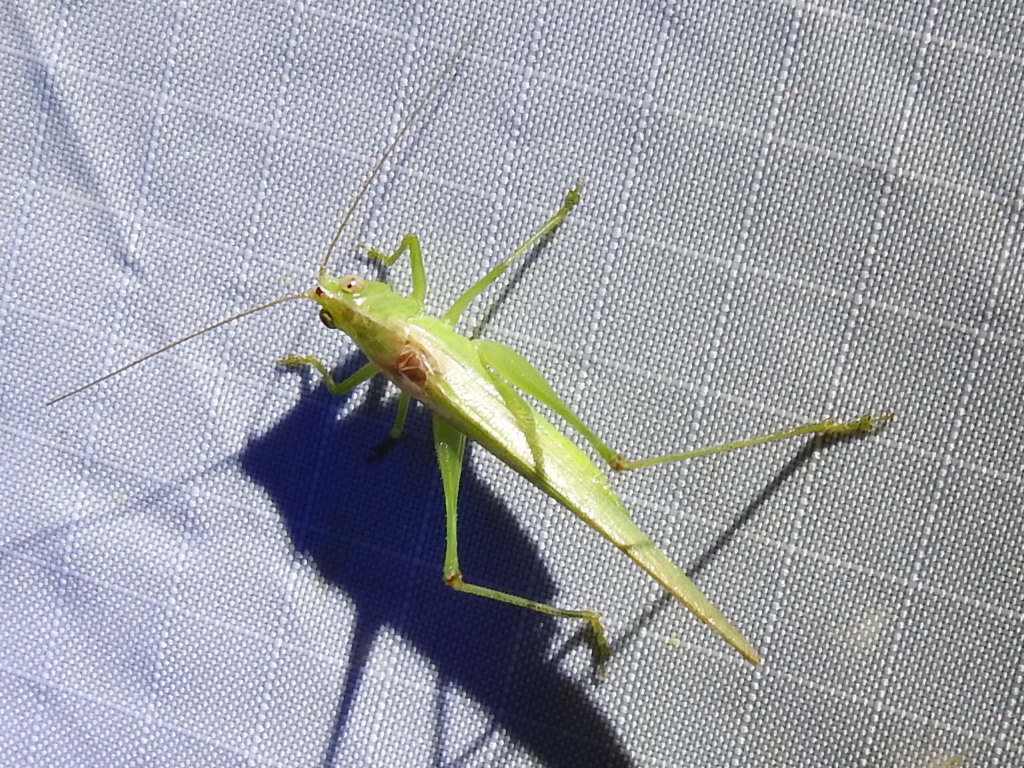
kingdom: Animalia
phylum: Arthropoda
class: Insecta
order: Orthoptera
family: Tettigoniidae
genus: Conocephalus
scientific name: Conocephalus fasciatus
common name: Slender meadow katydid
